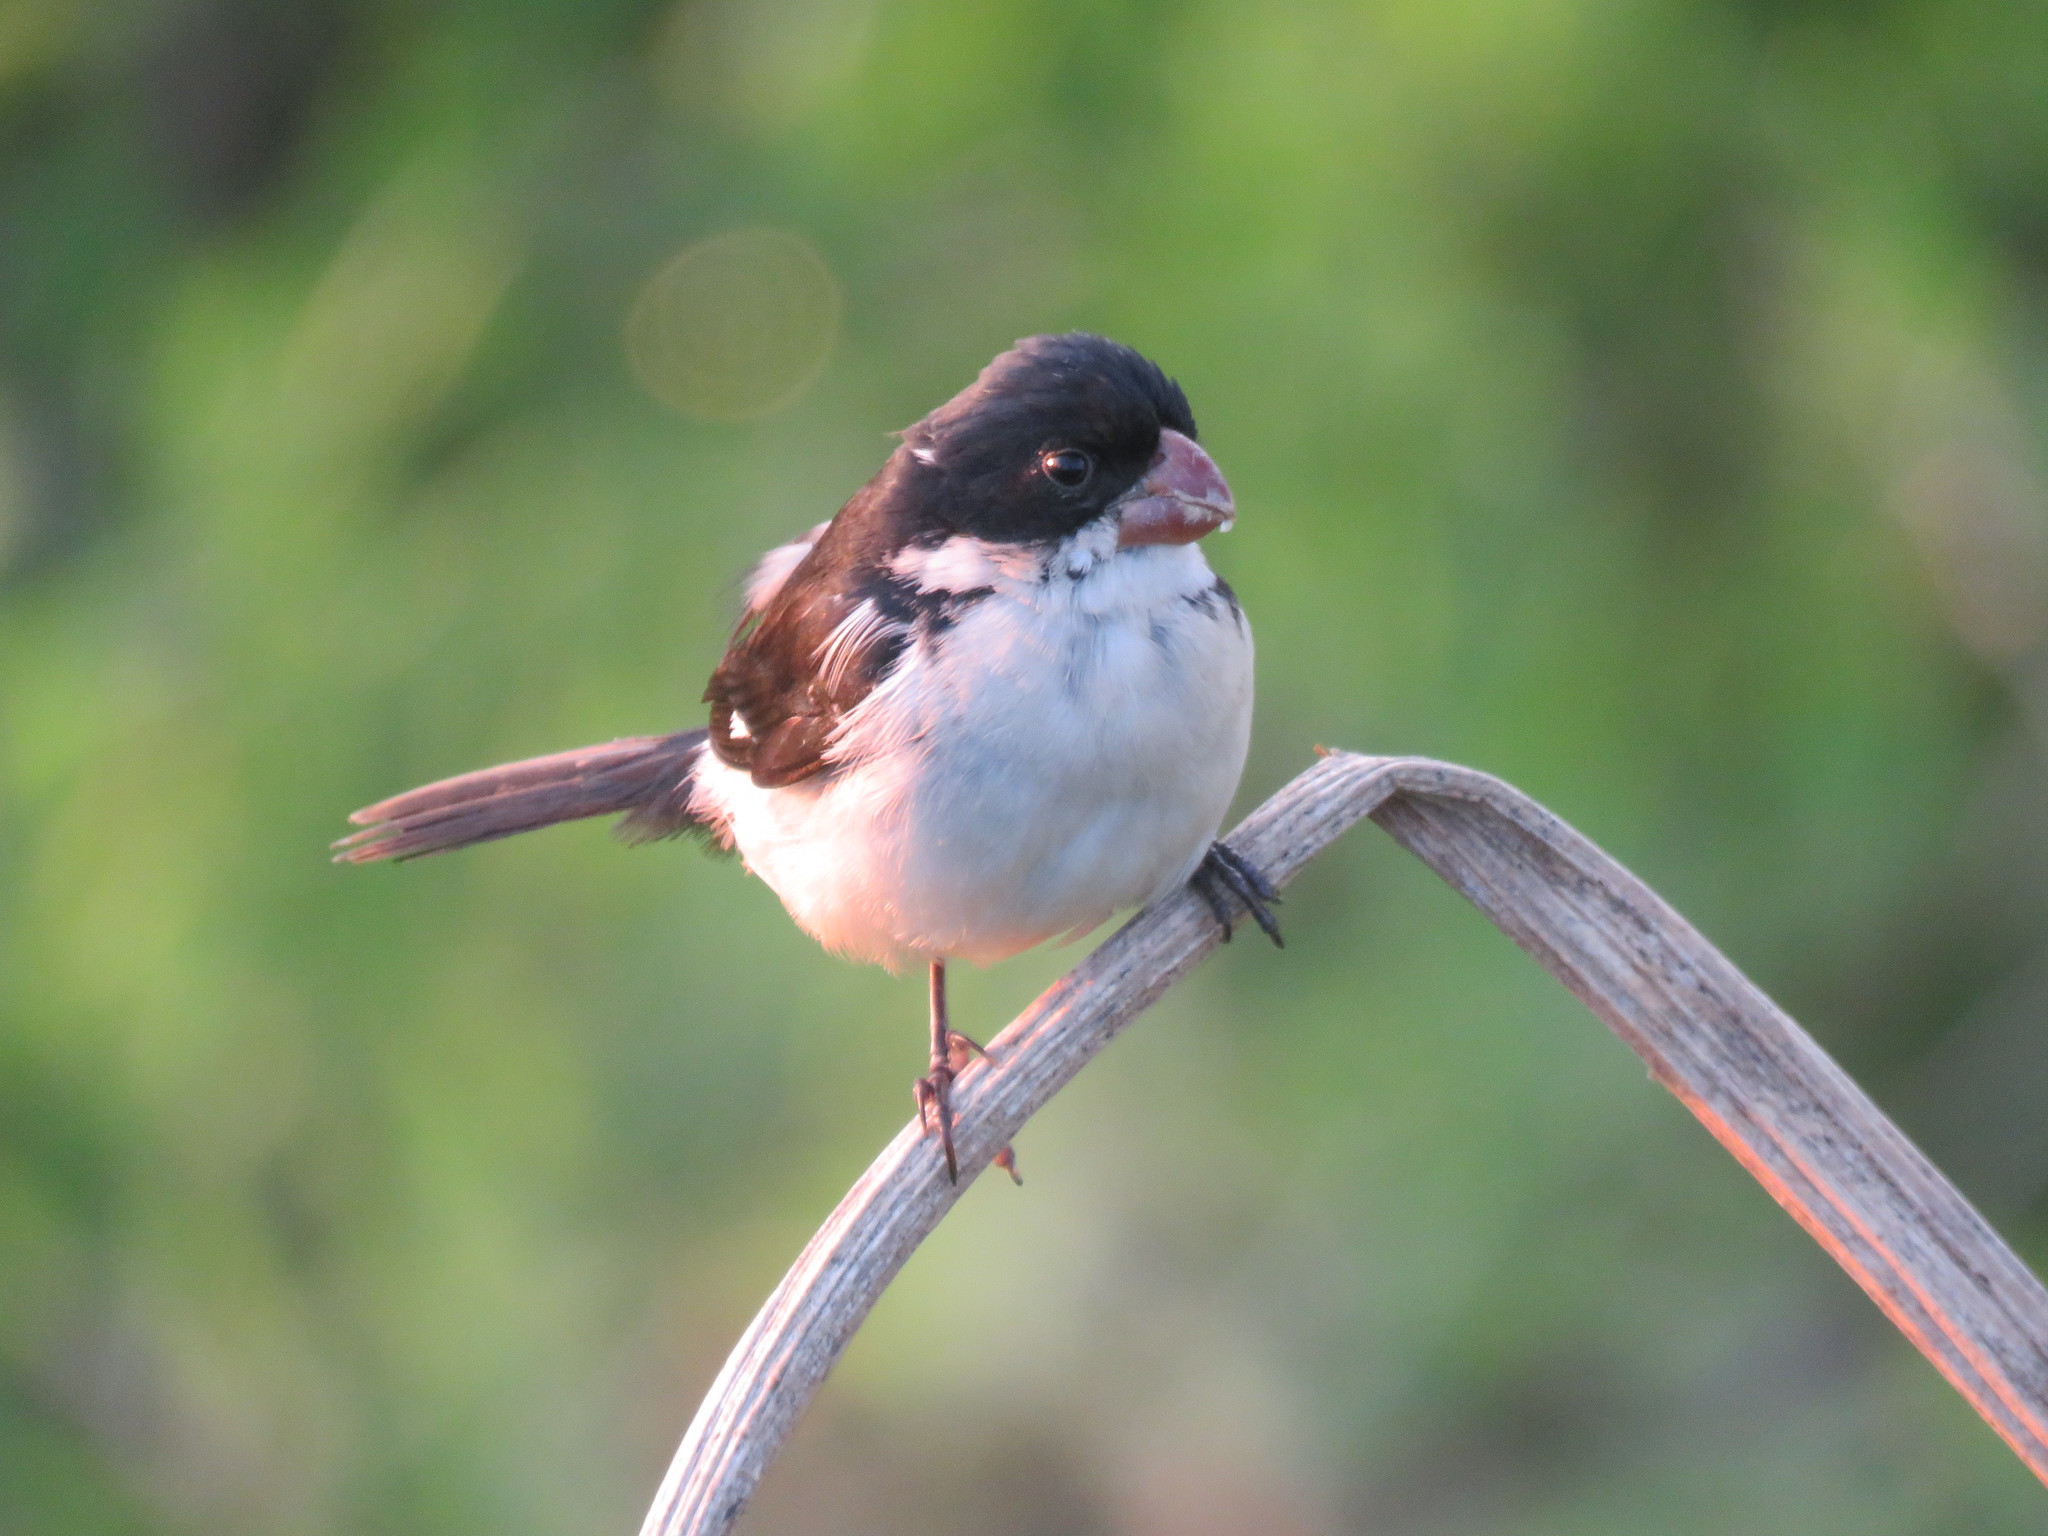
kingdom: Animalia
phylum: Chordata
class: Aves
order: Passeriformes
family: Thraupidae
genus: Sporophila
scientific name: Sporophila leucoptera
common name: White-bellied seedeater
